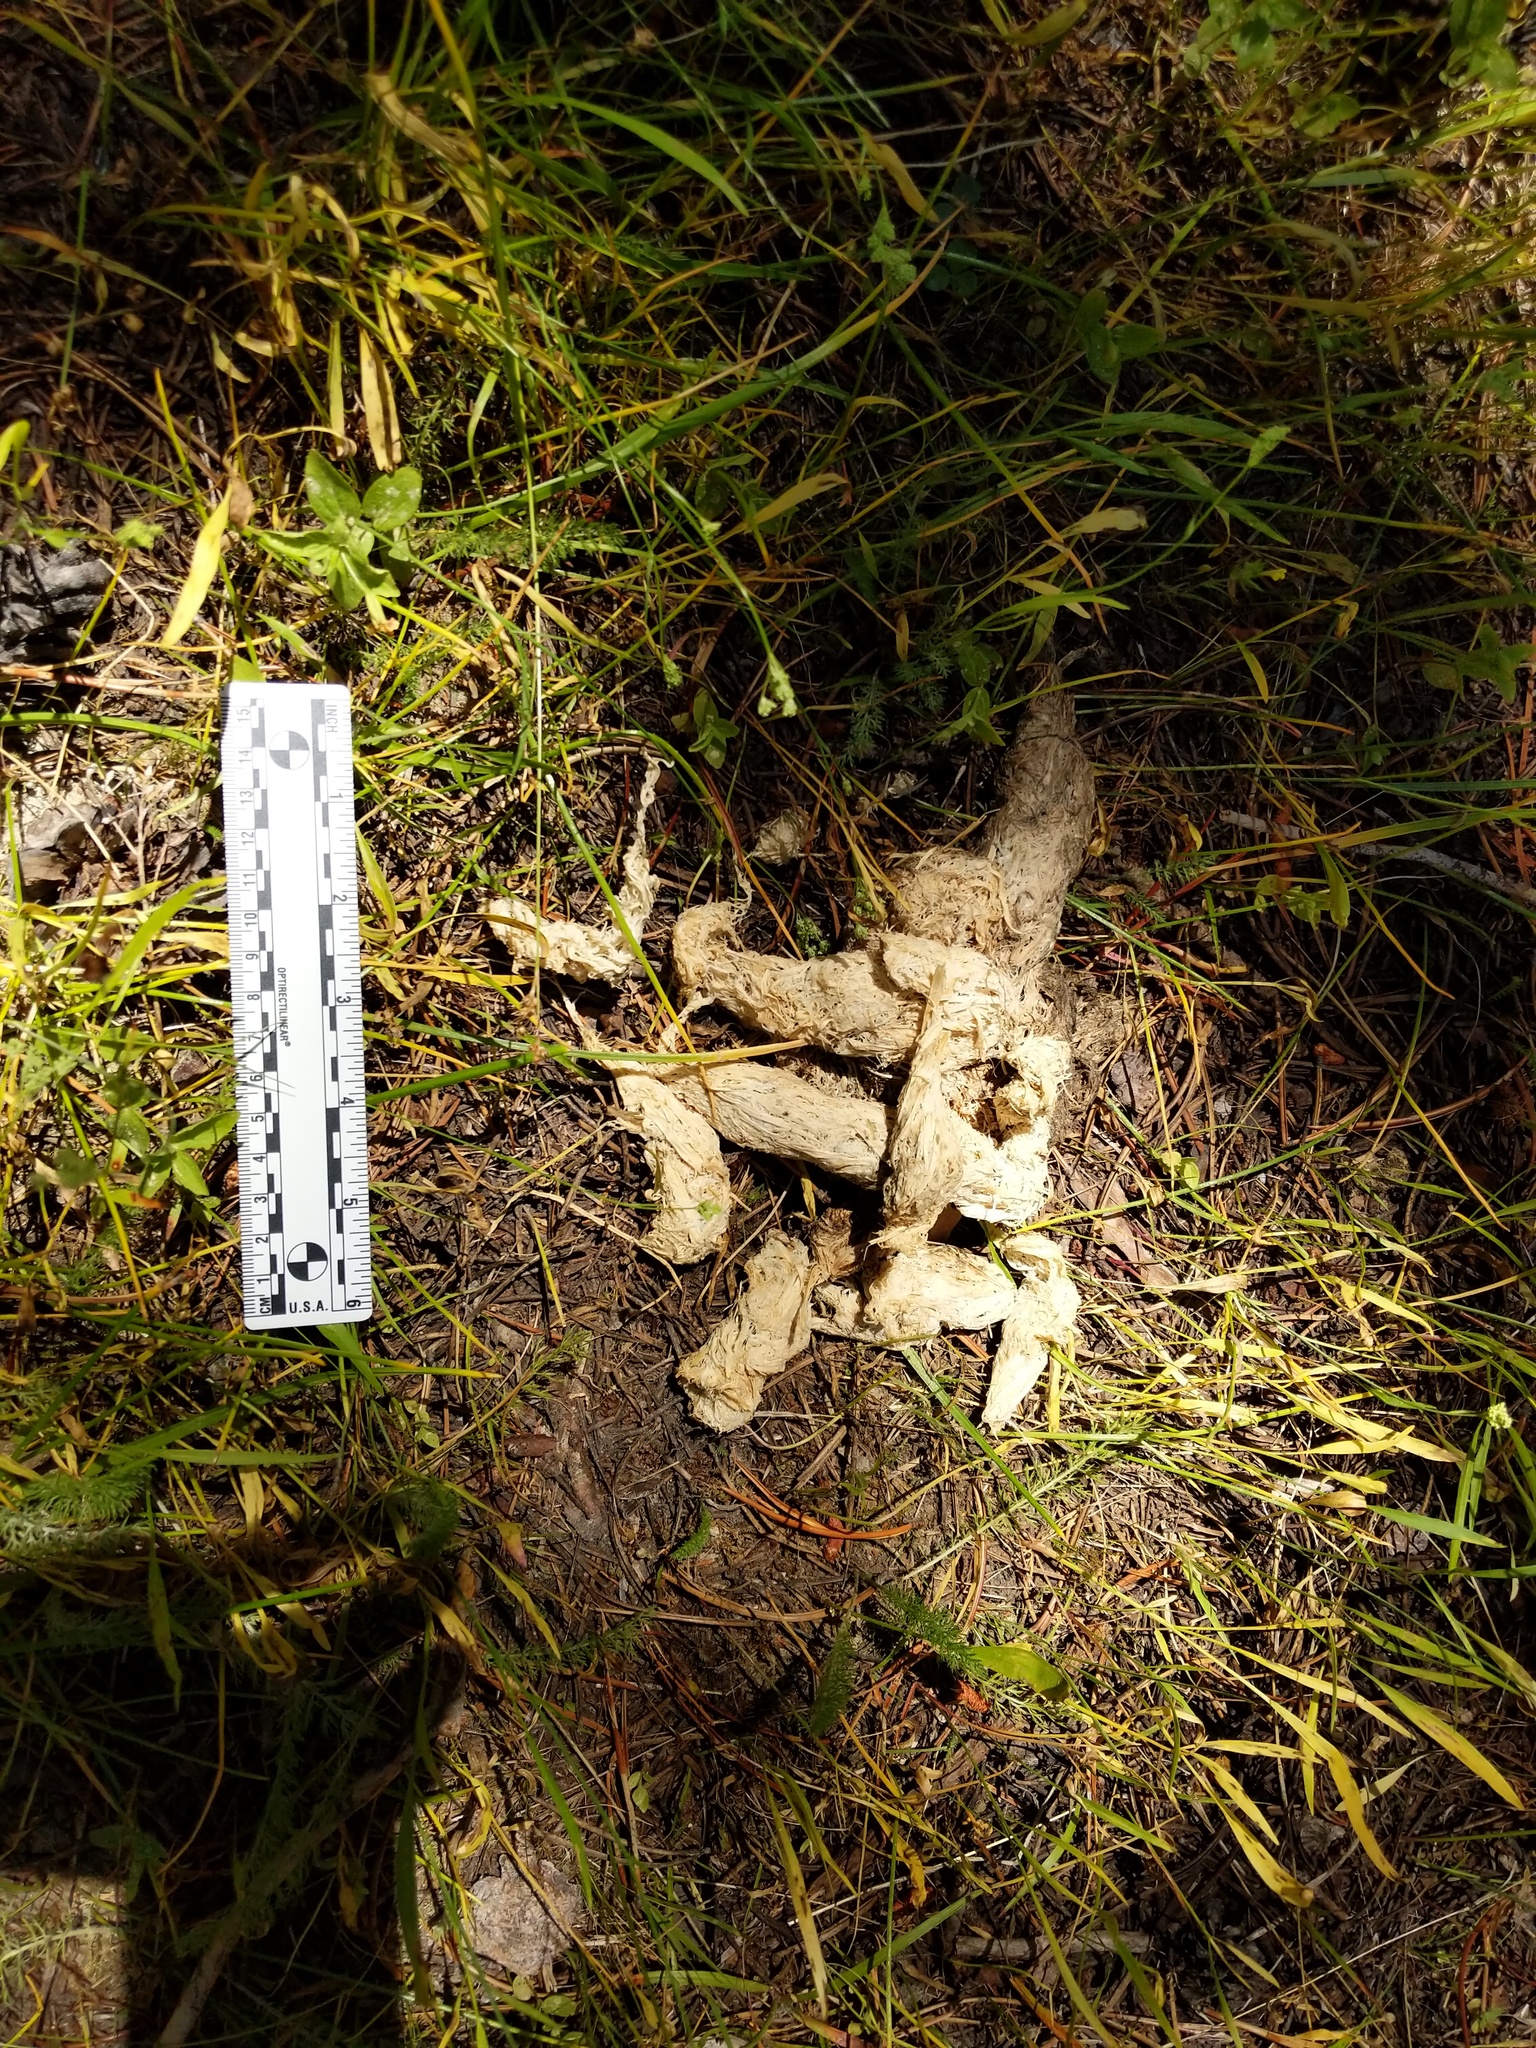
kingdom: Animalia
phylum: Chordata
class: Mammalia
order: Carnivora
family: Ursidae
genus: Ursus
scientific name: Ursus americanus
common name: American black bear
